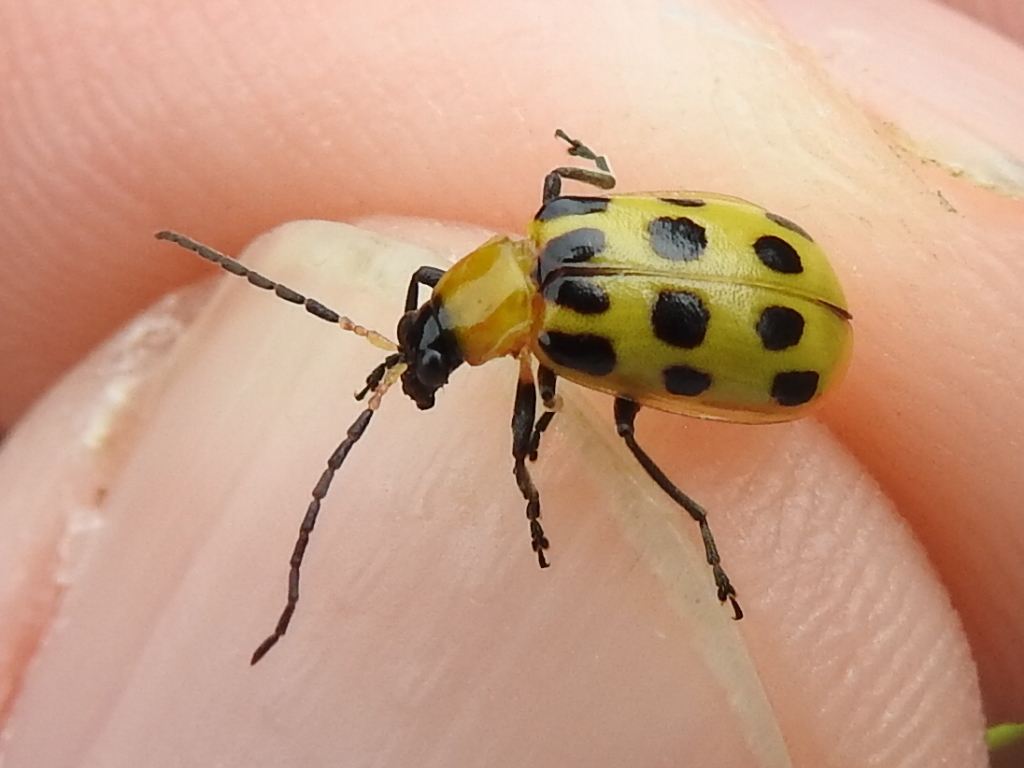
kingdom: Animalia
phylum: Arthropoda
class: Insecta
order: Coleoptera
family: Chrysomelidae
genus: Diabrotica
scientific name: Diabrotica undecimpunctata
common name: Spotted cucumber beetle
